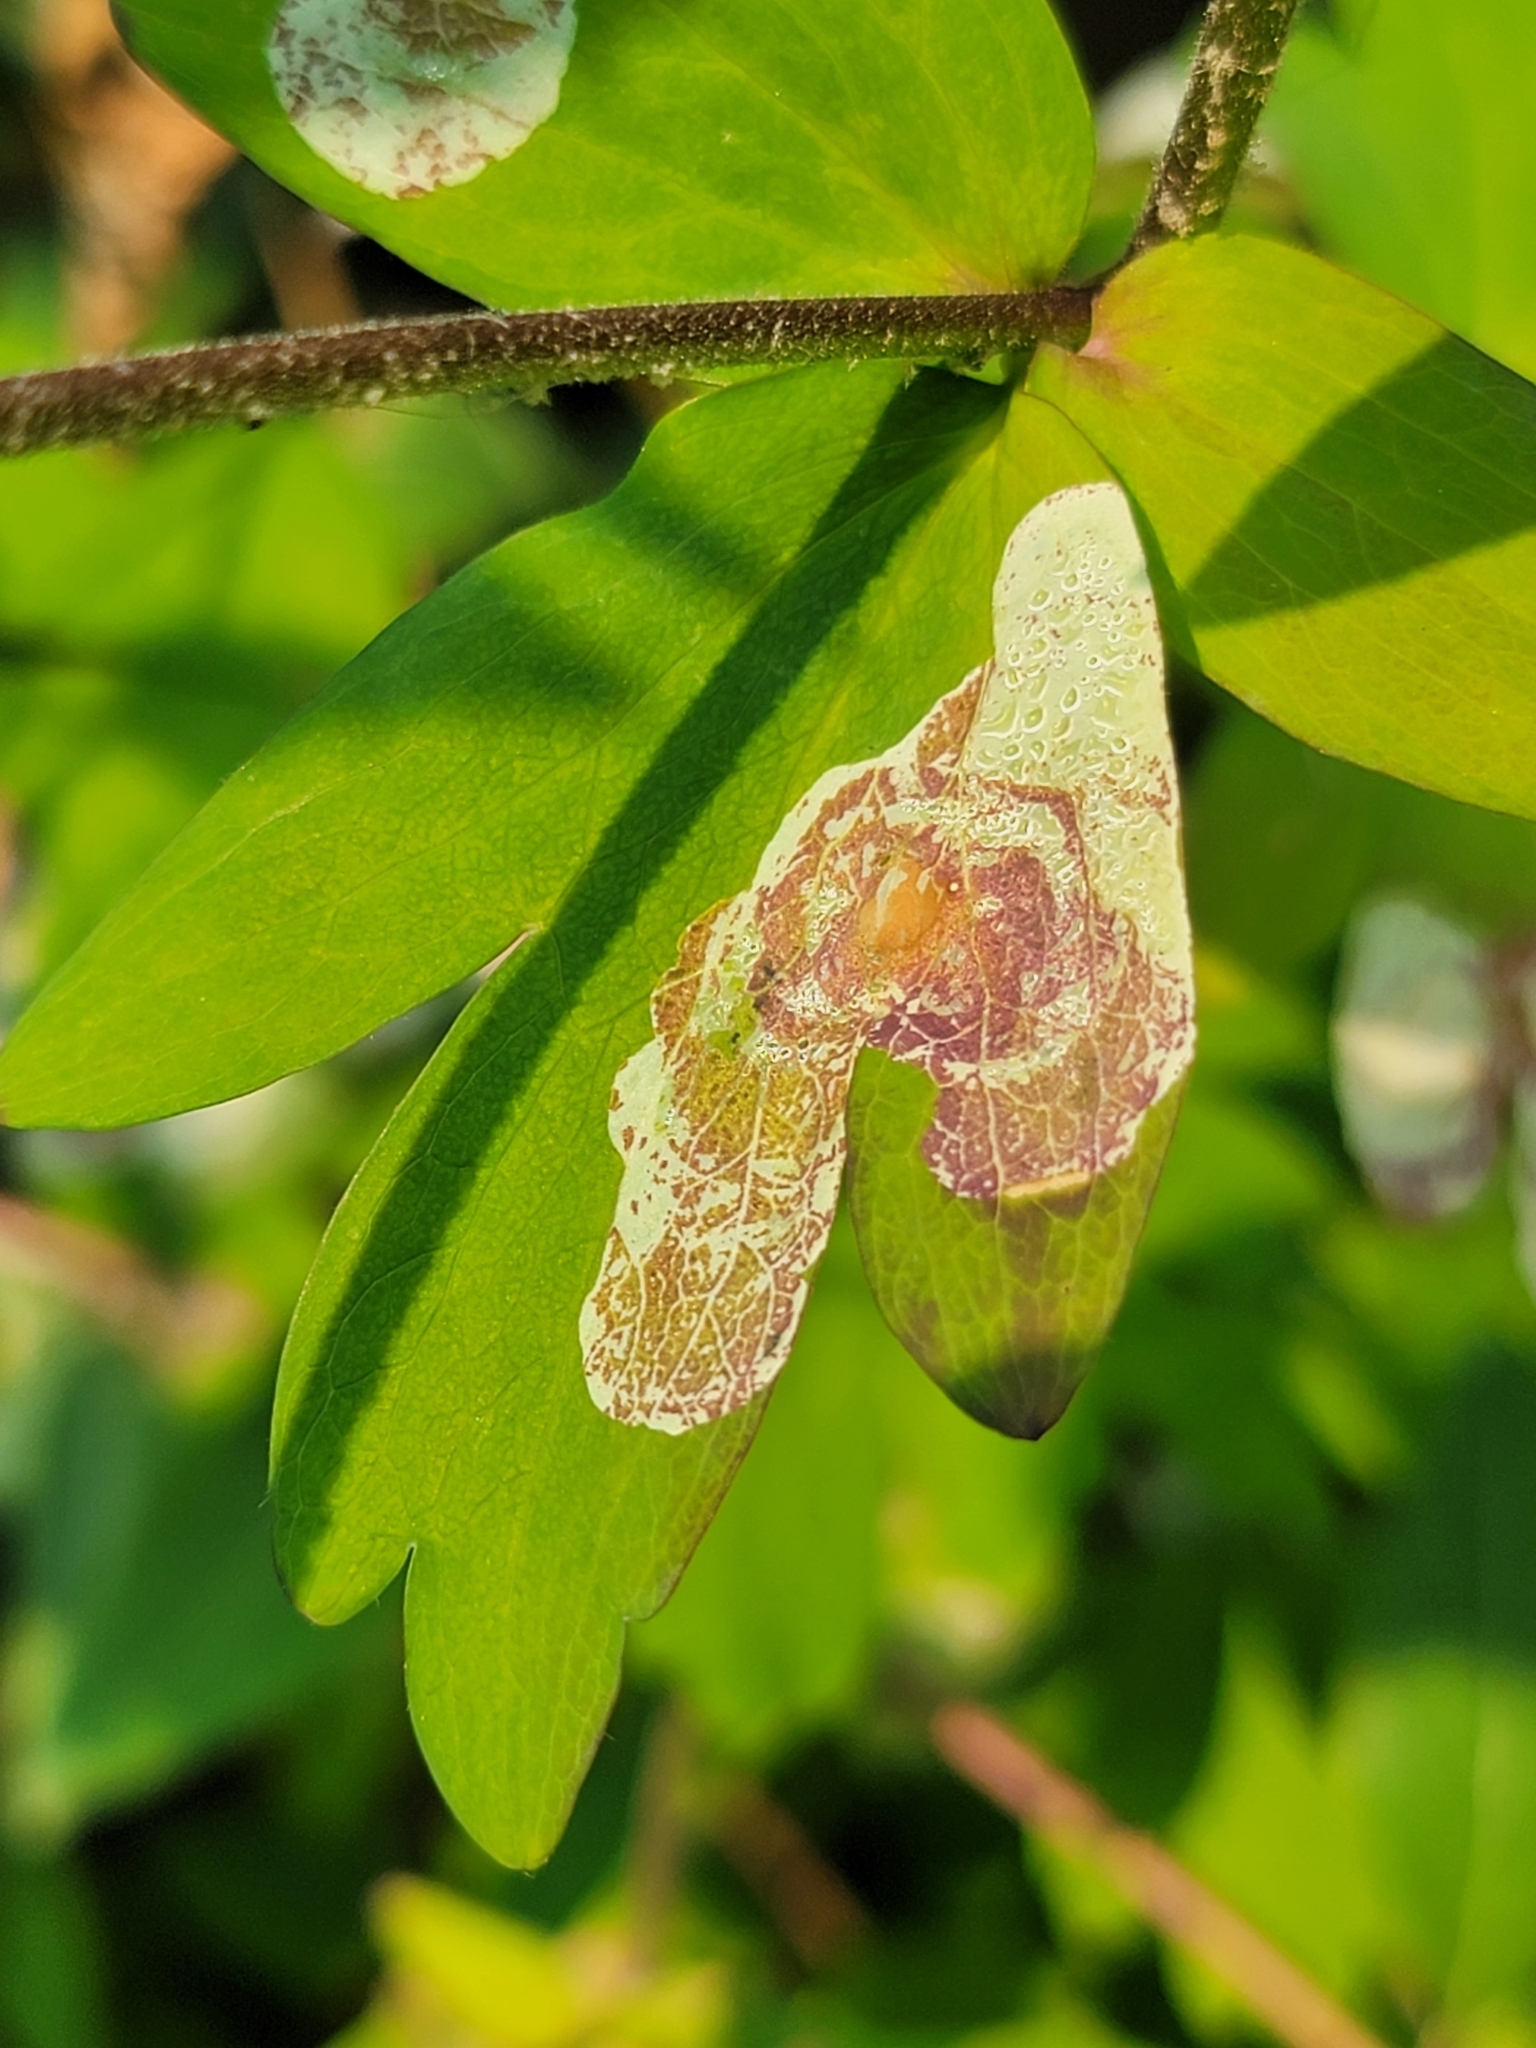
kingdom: Animalia
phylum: Arthropoda
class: Insecta
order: Diptera
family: Agromyzidae
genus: Phytomyza
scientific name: Phytomyza aquilegiana
